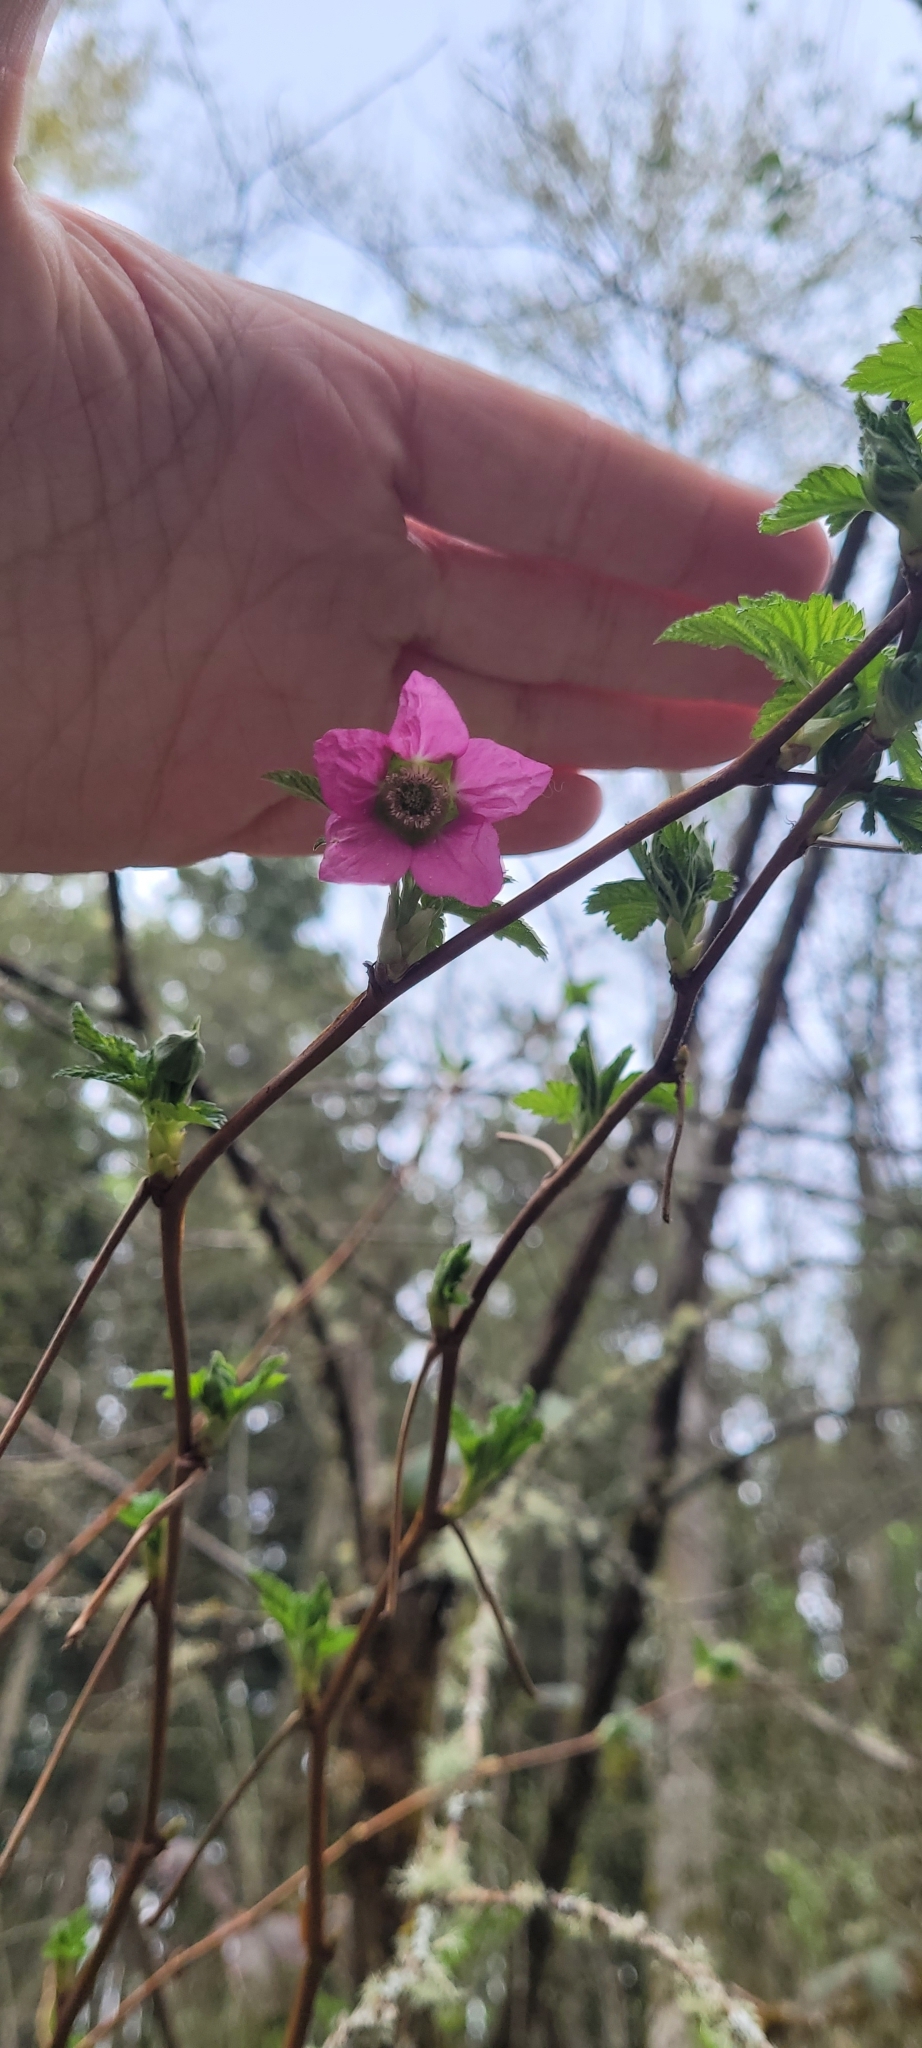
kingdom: Plantae
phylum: Tracheophyta
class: Magnoliopsida
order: Rosales
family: Rosaceae
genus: Rubus
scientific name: Rubus spectabilis
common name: Salmonberry
